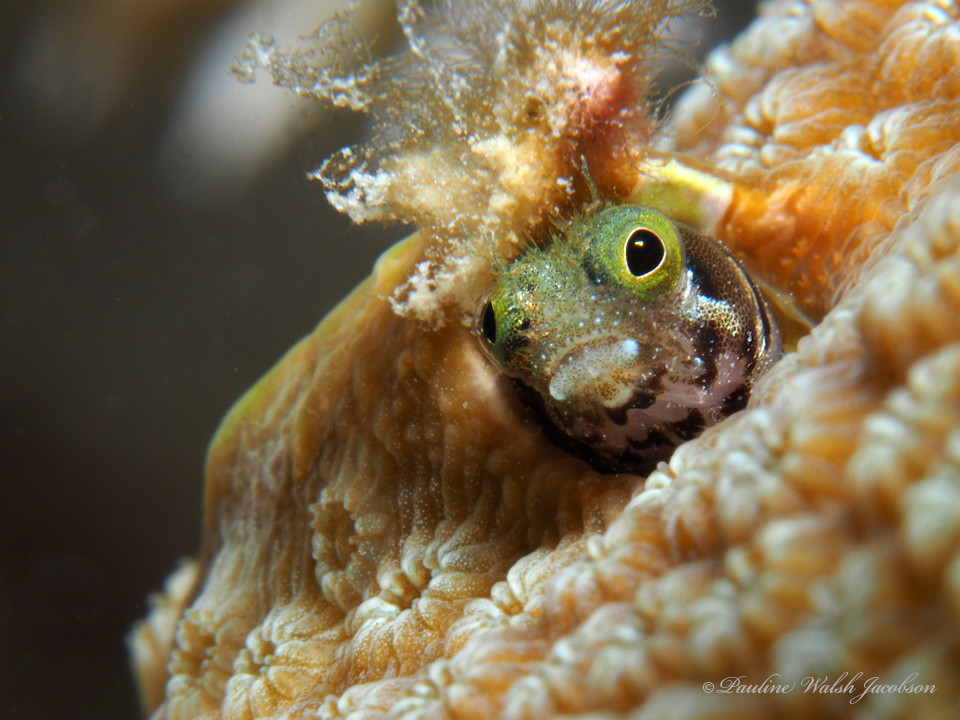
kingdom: Animalia
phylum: Chordata
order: Perciformes
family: Chaenopsidae
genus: Acanthemblemaria
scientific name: Acanthemblemaria spinosa
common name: Spinyhead blenny
